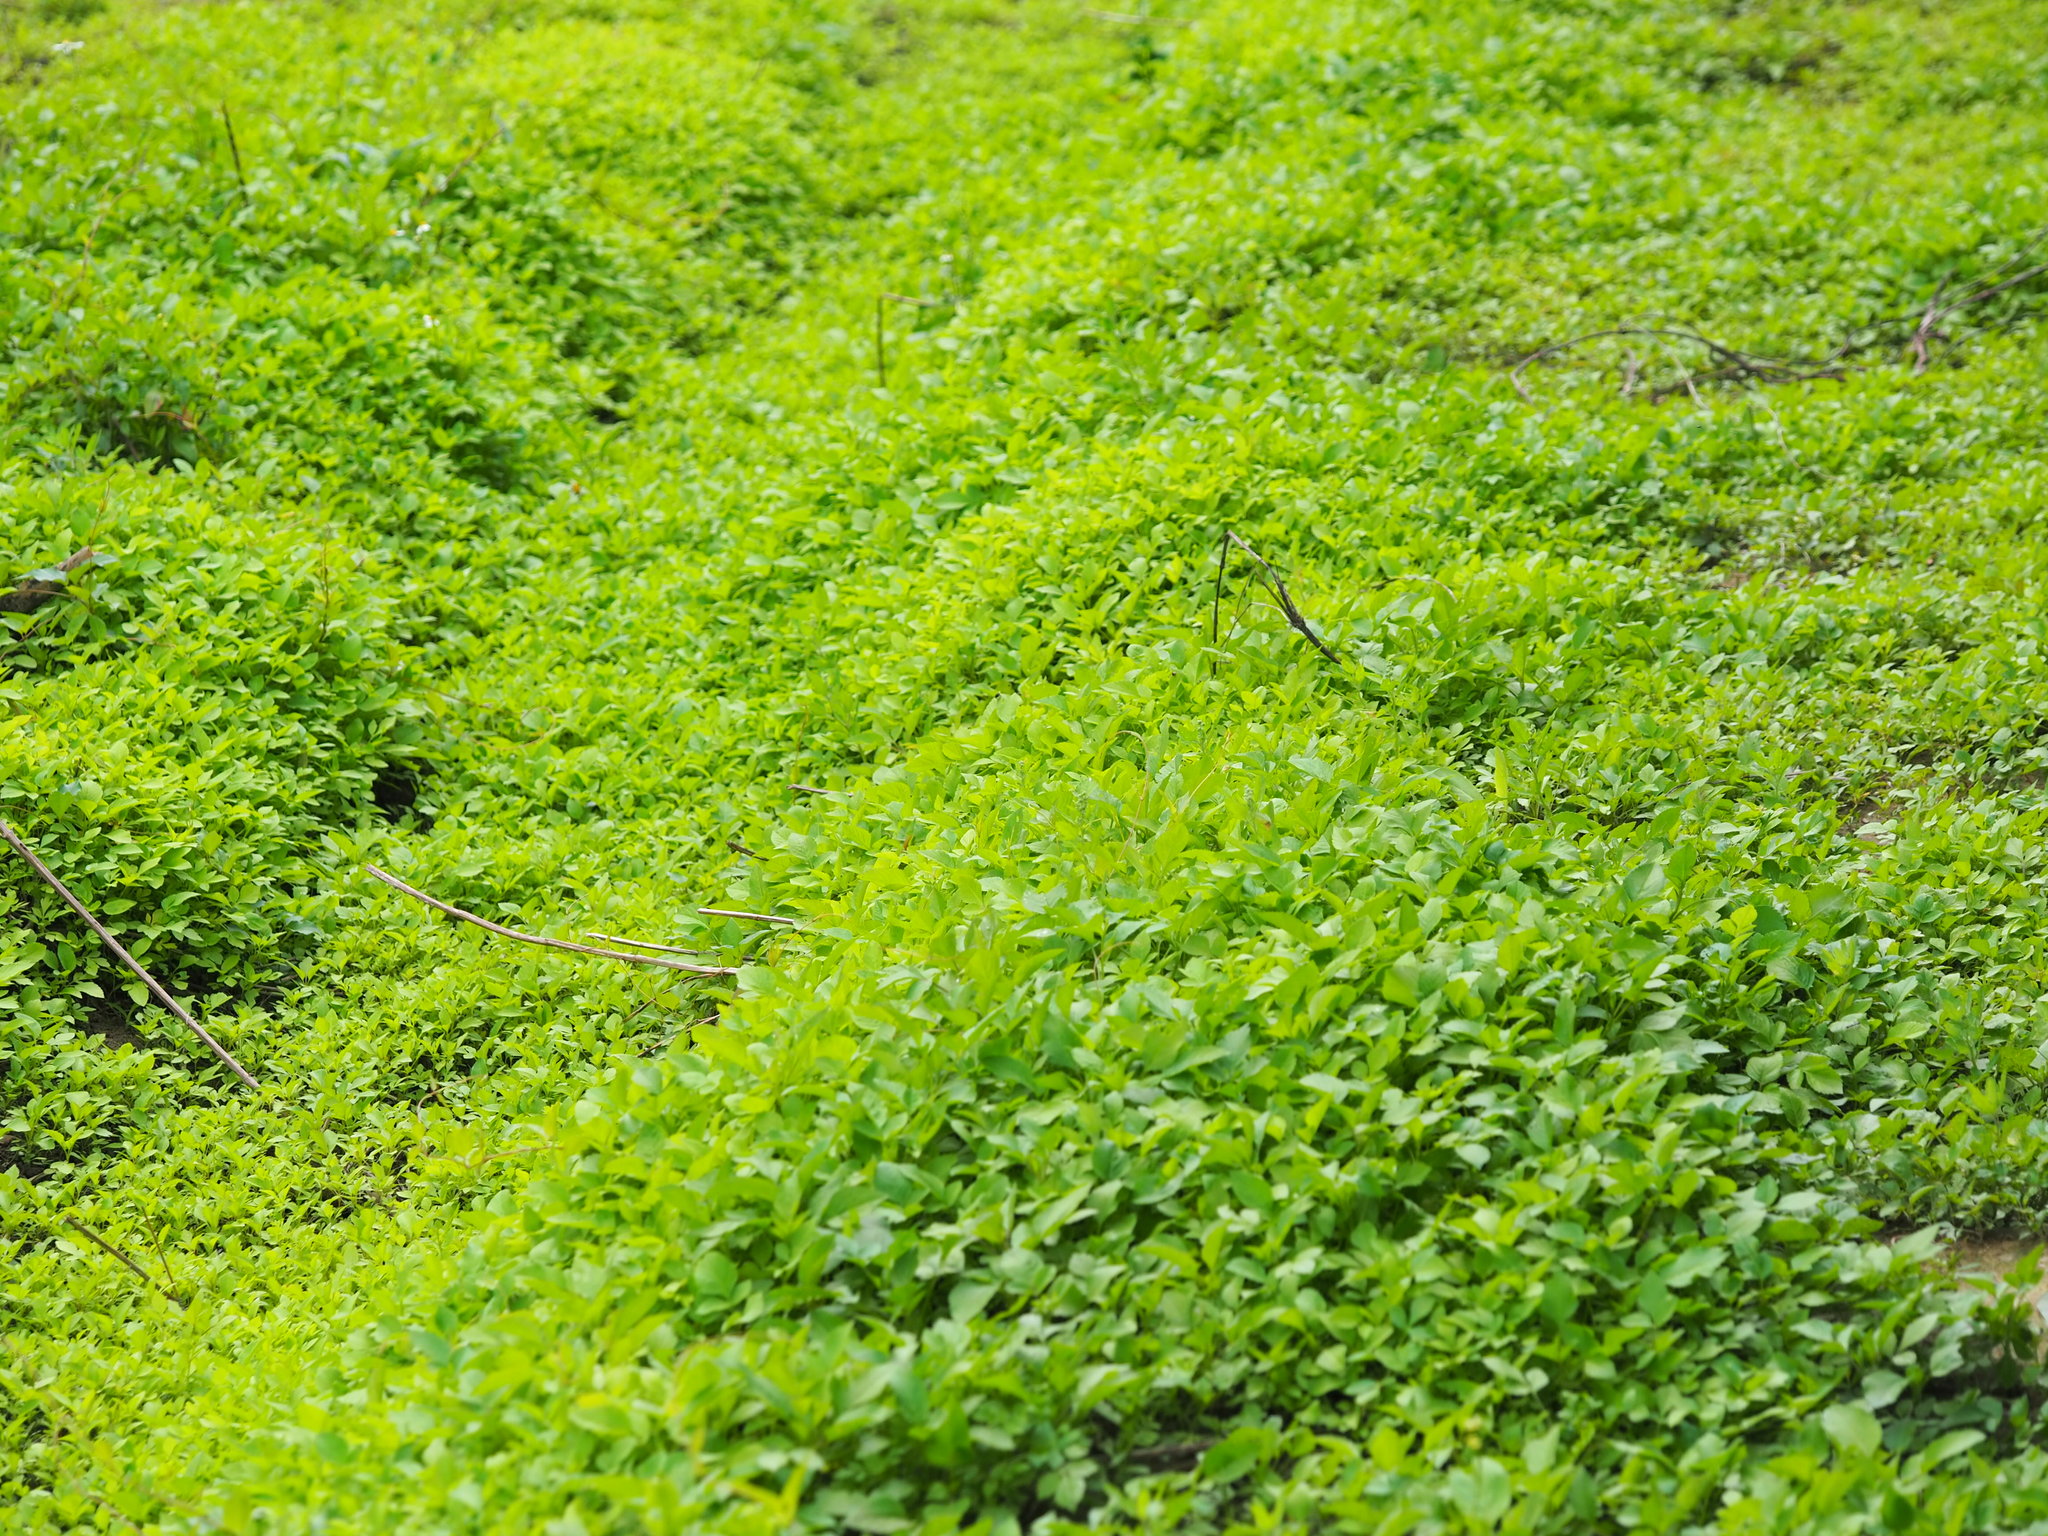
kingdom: Plantae
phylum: Tracheophyta
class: Magnoliopsida
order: Asterales
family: Asteraceae
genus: Bidens
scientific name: Bidens alba
